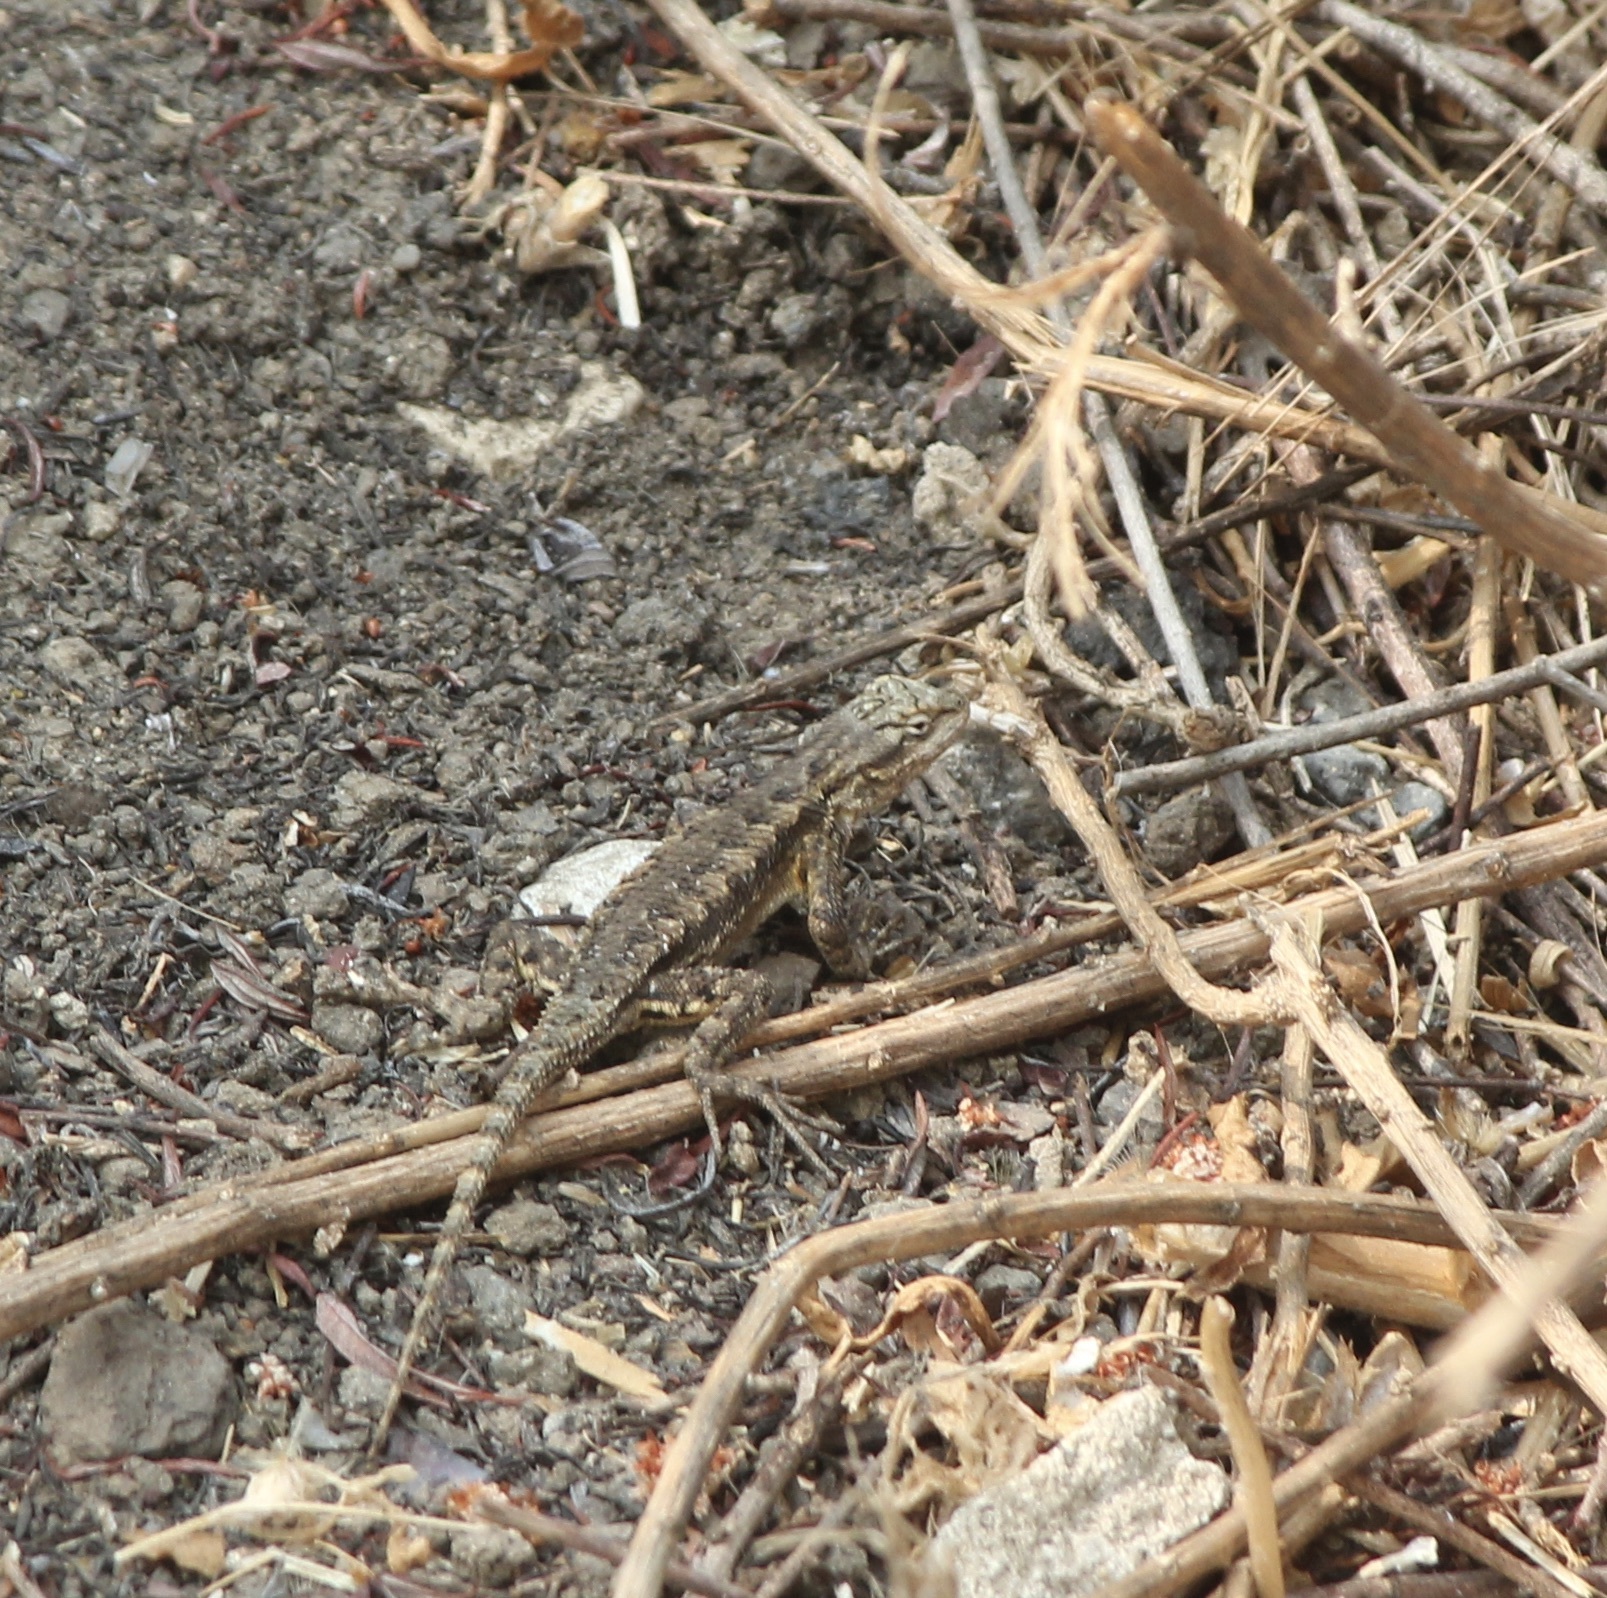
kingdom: Animalia
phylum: Chordata
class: Squamata
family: Phrynosomatidae
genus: Sceloporus
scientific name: Sceloporus occidentalis
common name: Western fence lizard
